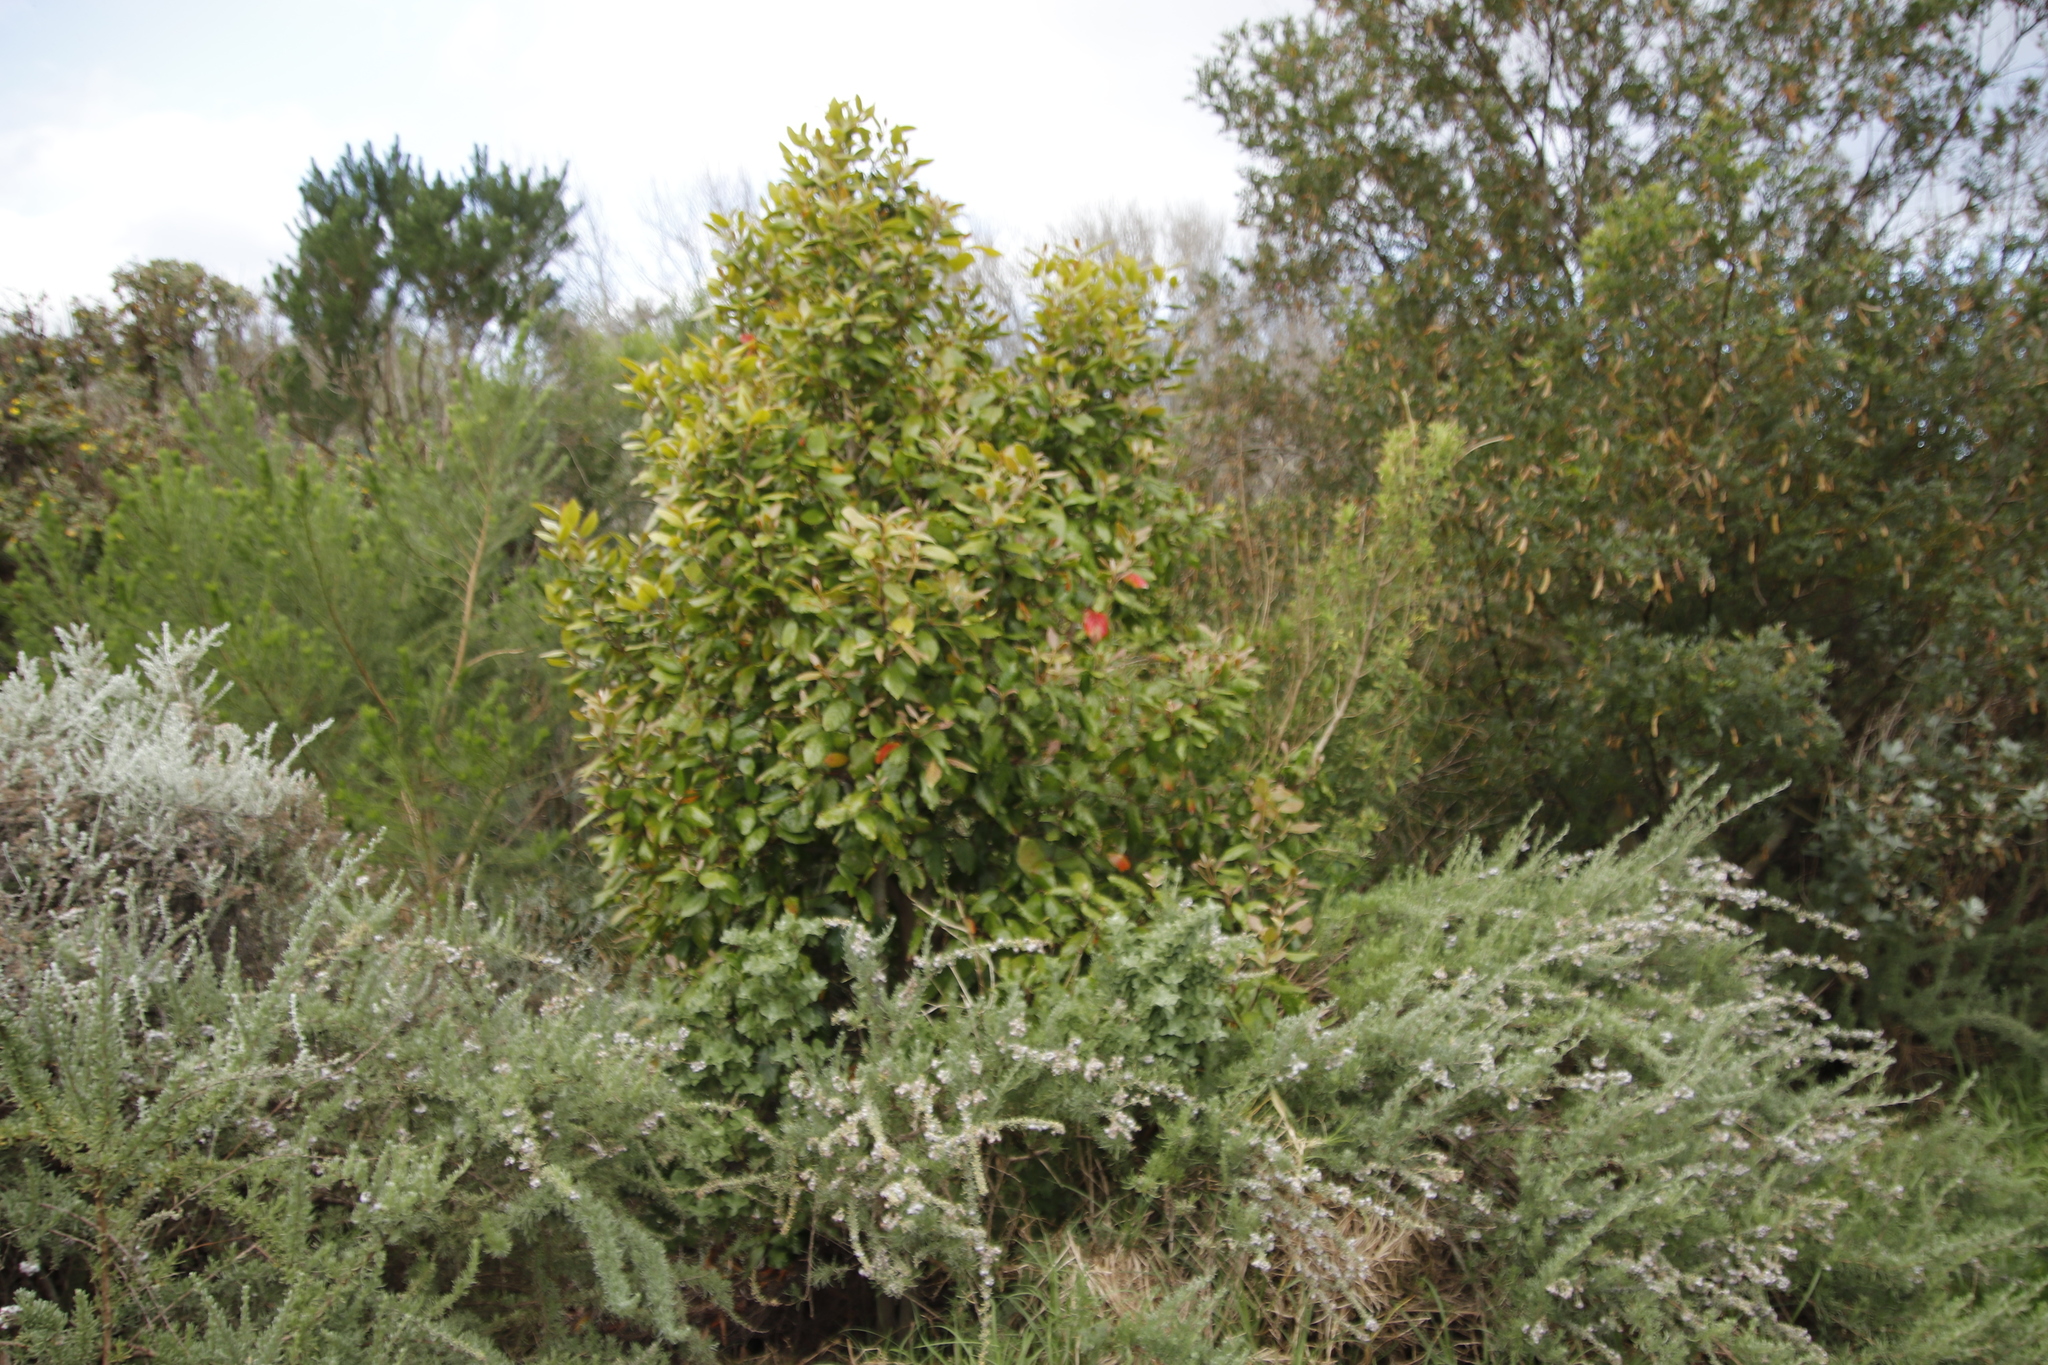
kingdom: Plantae
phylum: Tracheophyta
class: Magnoliopsida
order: Cornales
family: Curtisiaceae
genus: Curtisia
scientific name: Curtisia dentata
